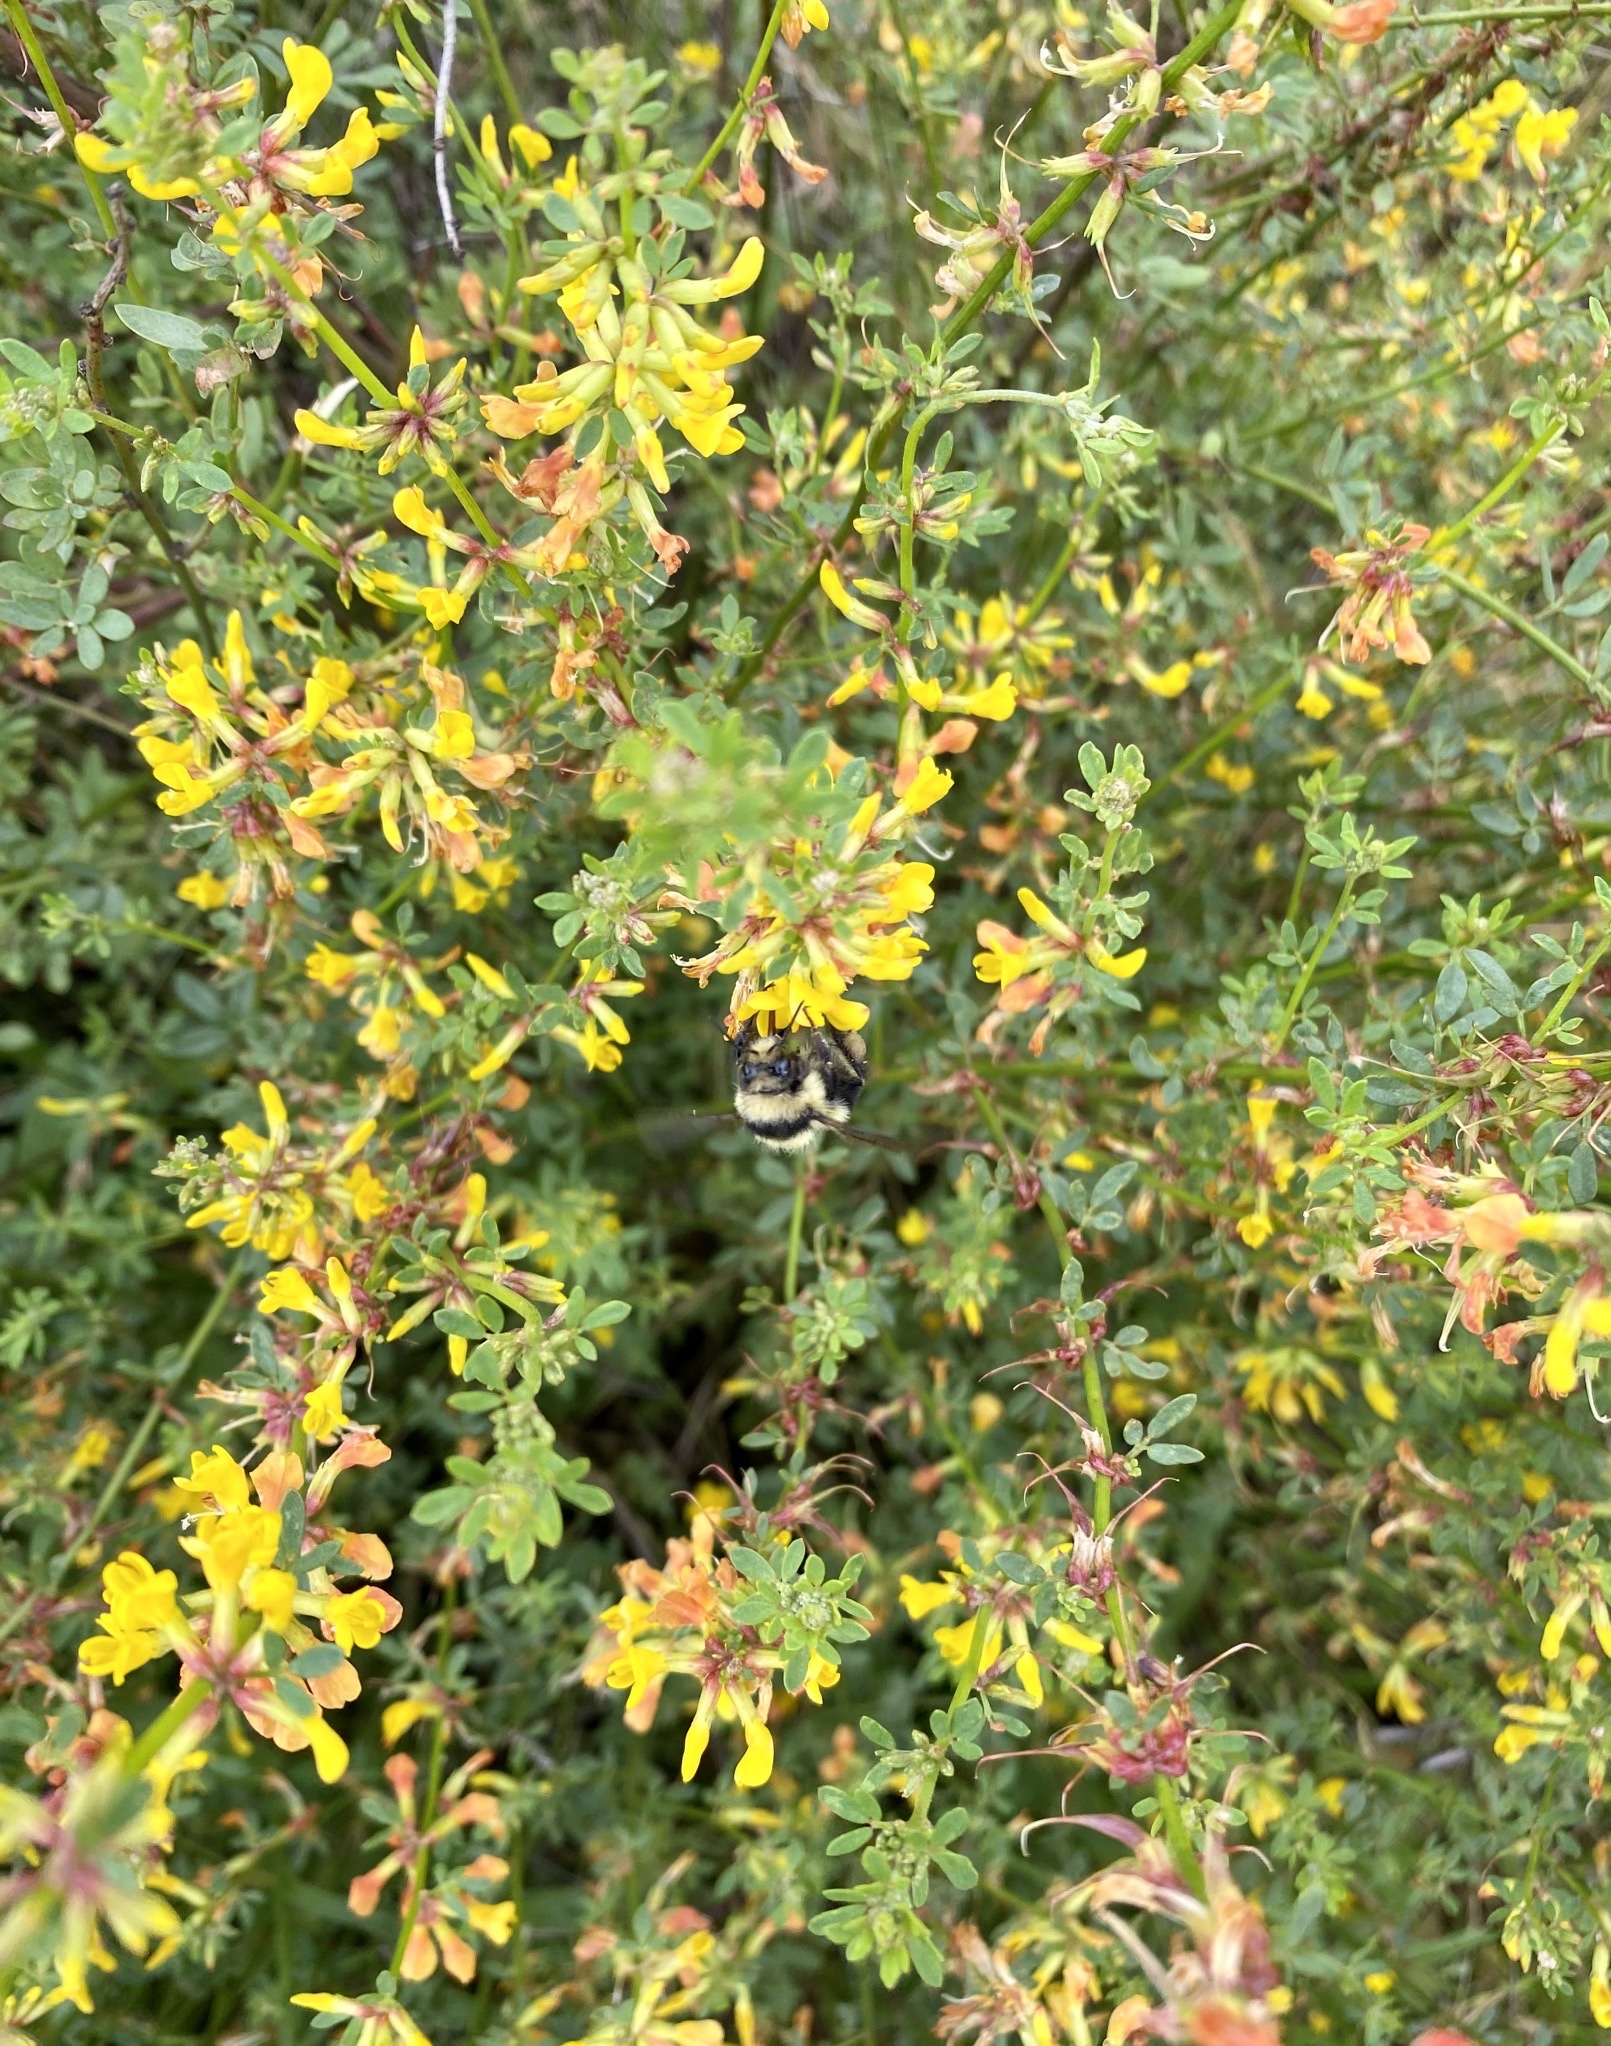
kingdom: Animalia
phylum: Arthropoda
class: Insecta
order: Hymenoptera
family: Apidae
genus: Bombus
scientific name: Bombus melanopygus
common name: Black tail bumble bee
